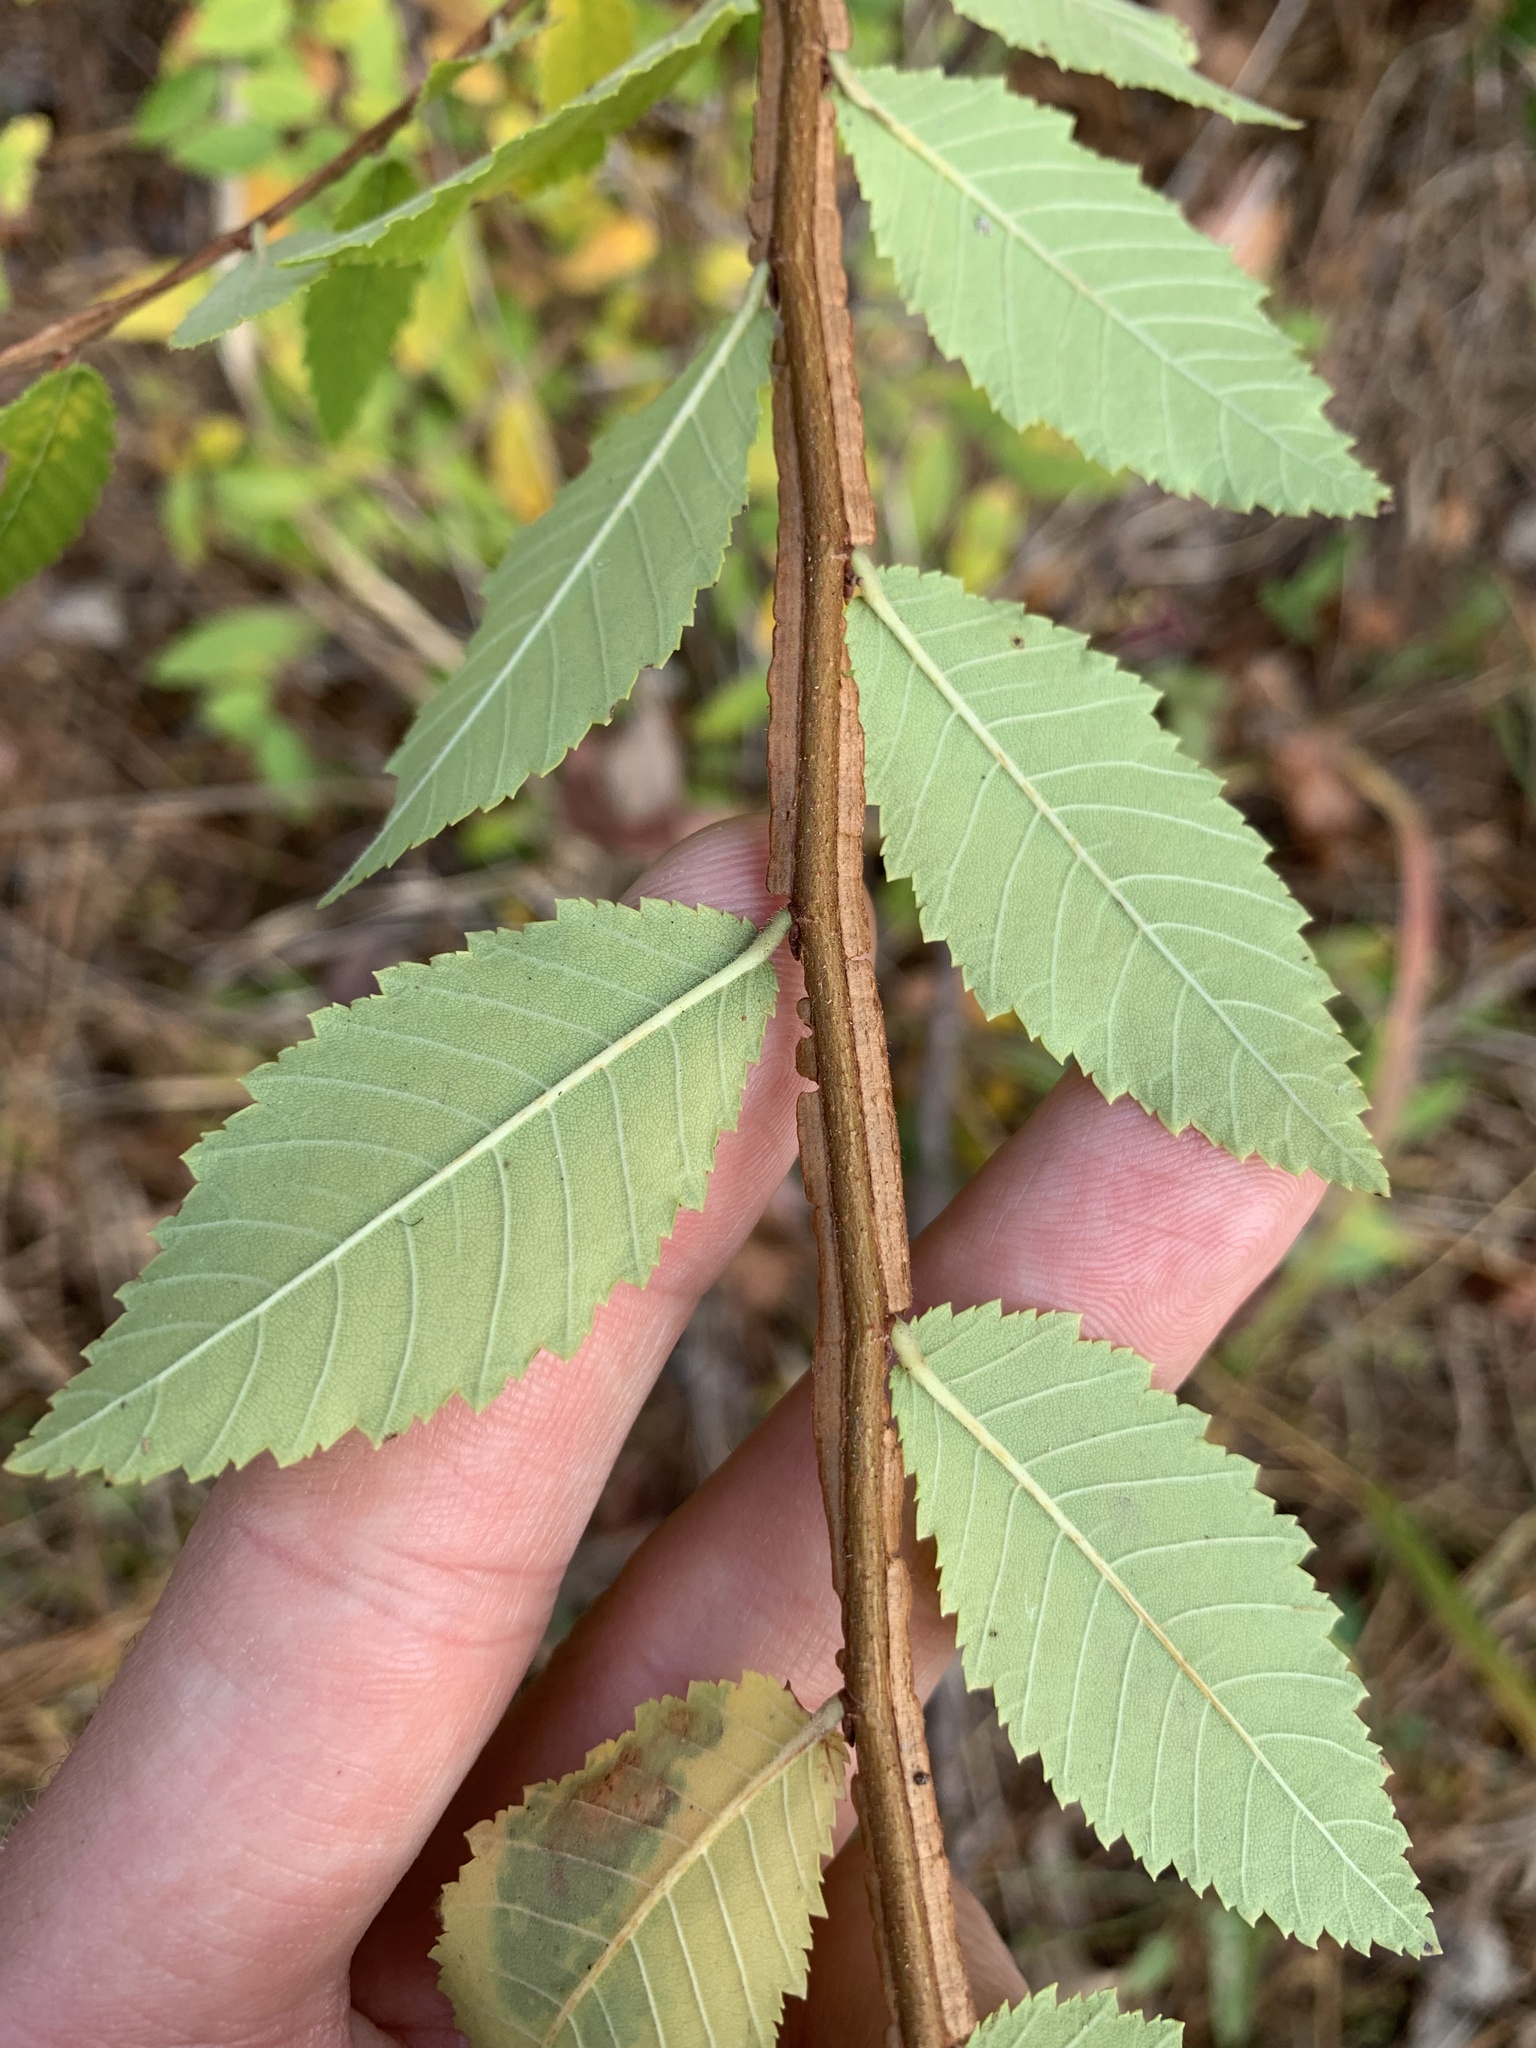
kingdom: Plantae
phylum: Tracheophyta
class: Magnoliopsida
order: Rosales
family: Ulmaceae
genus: Ulmus
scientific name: Ulmus alata
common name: Winged elm
